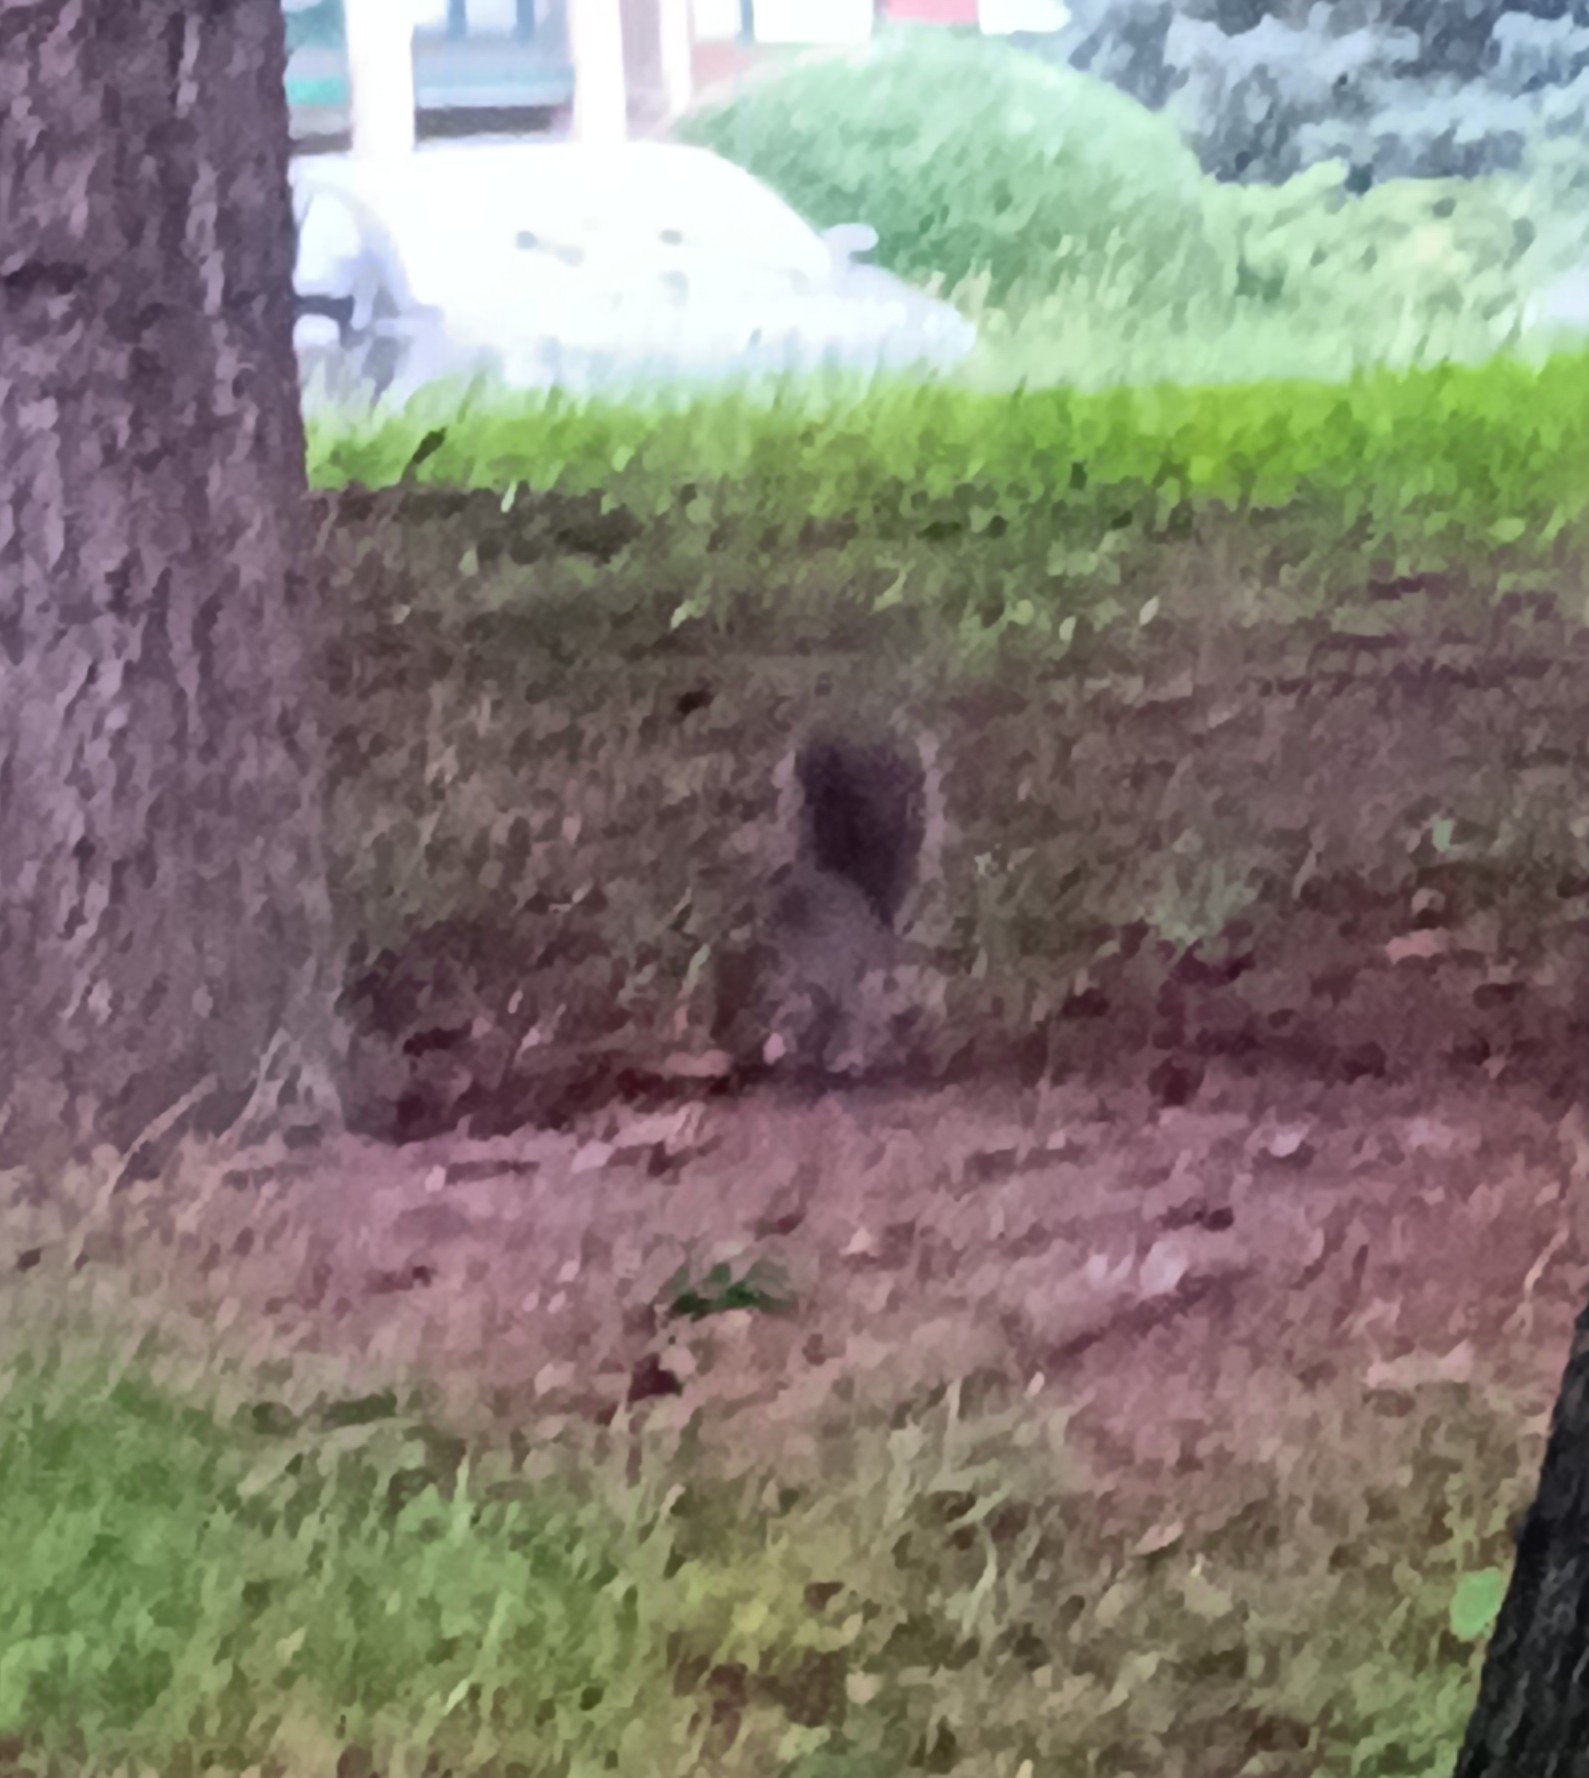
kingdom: Animalia
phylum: Chordata
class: Mammalia
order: Rodentia
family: Sciuridae
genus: Sciurus
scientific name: Sciurus carolinensis
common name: Eastern gray squirrel
